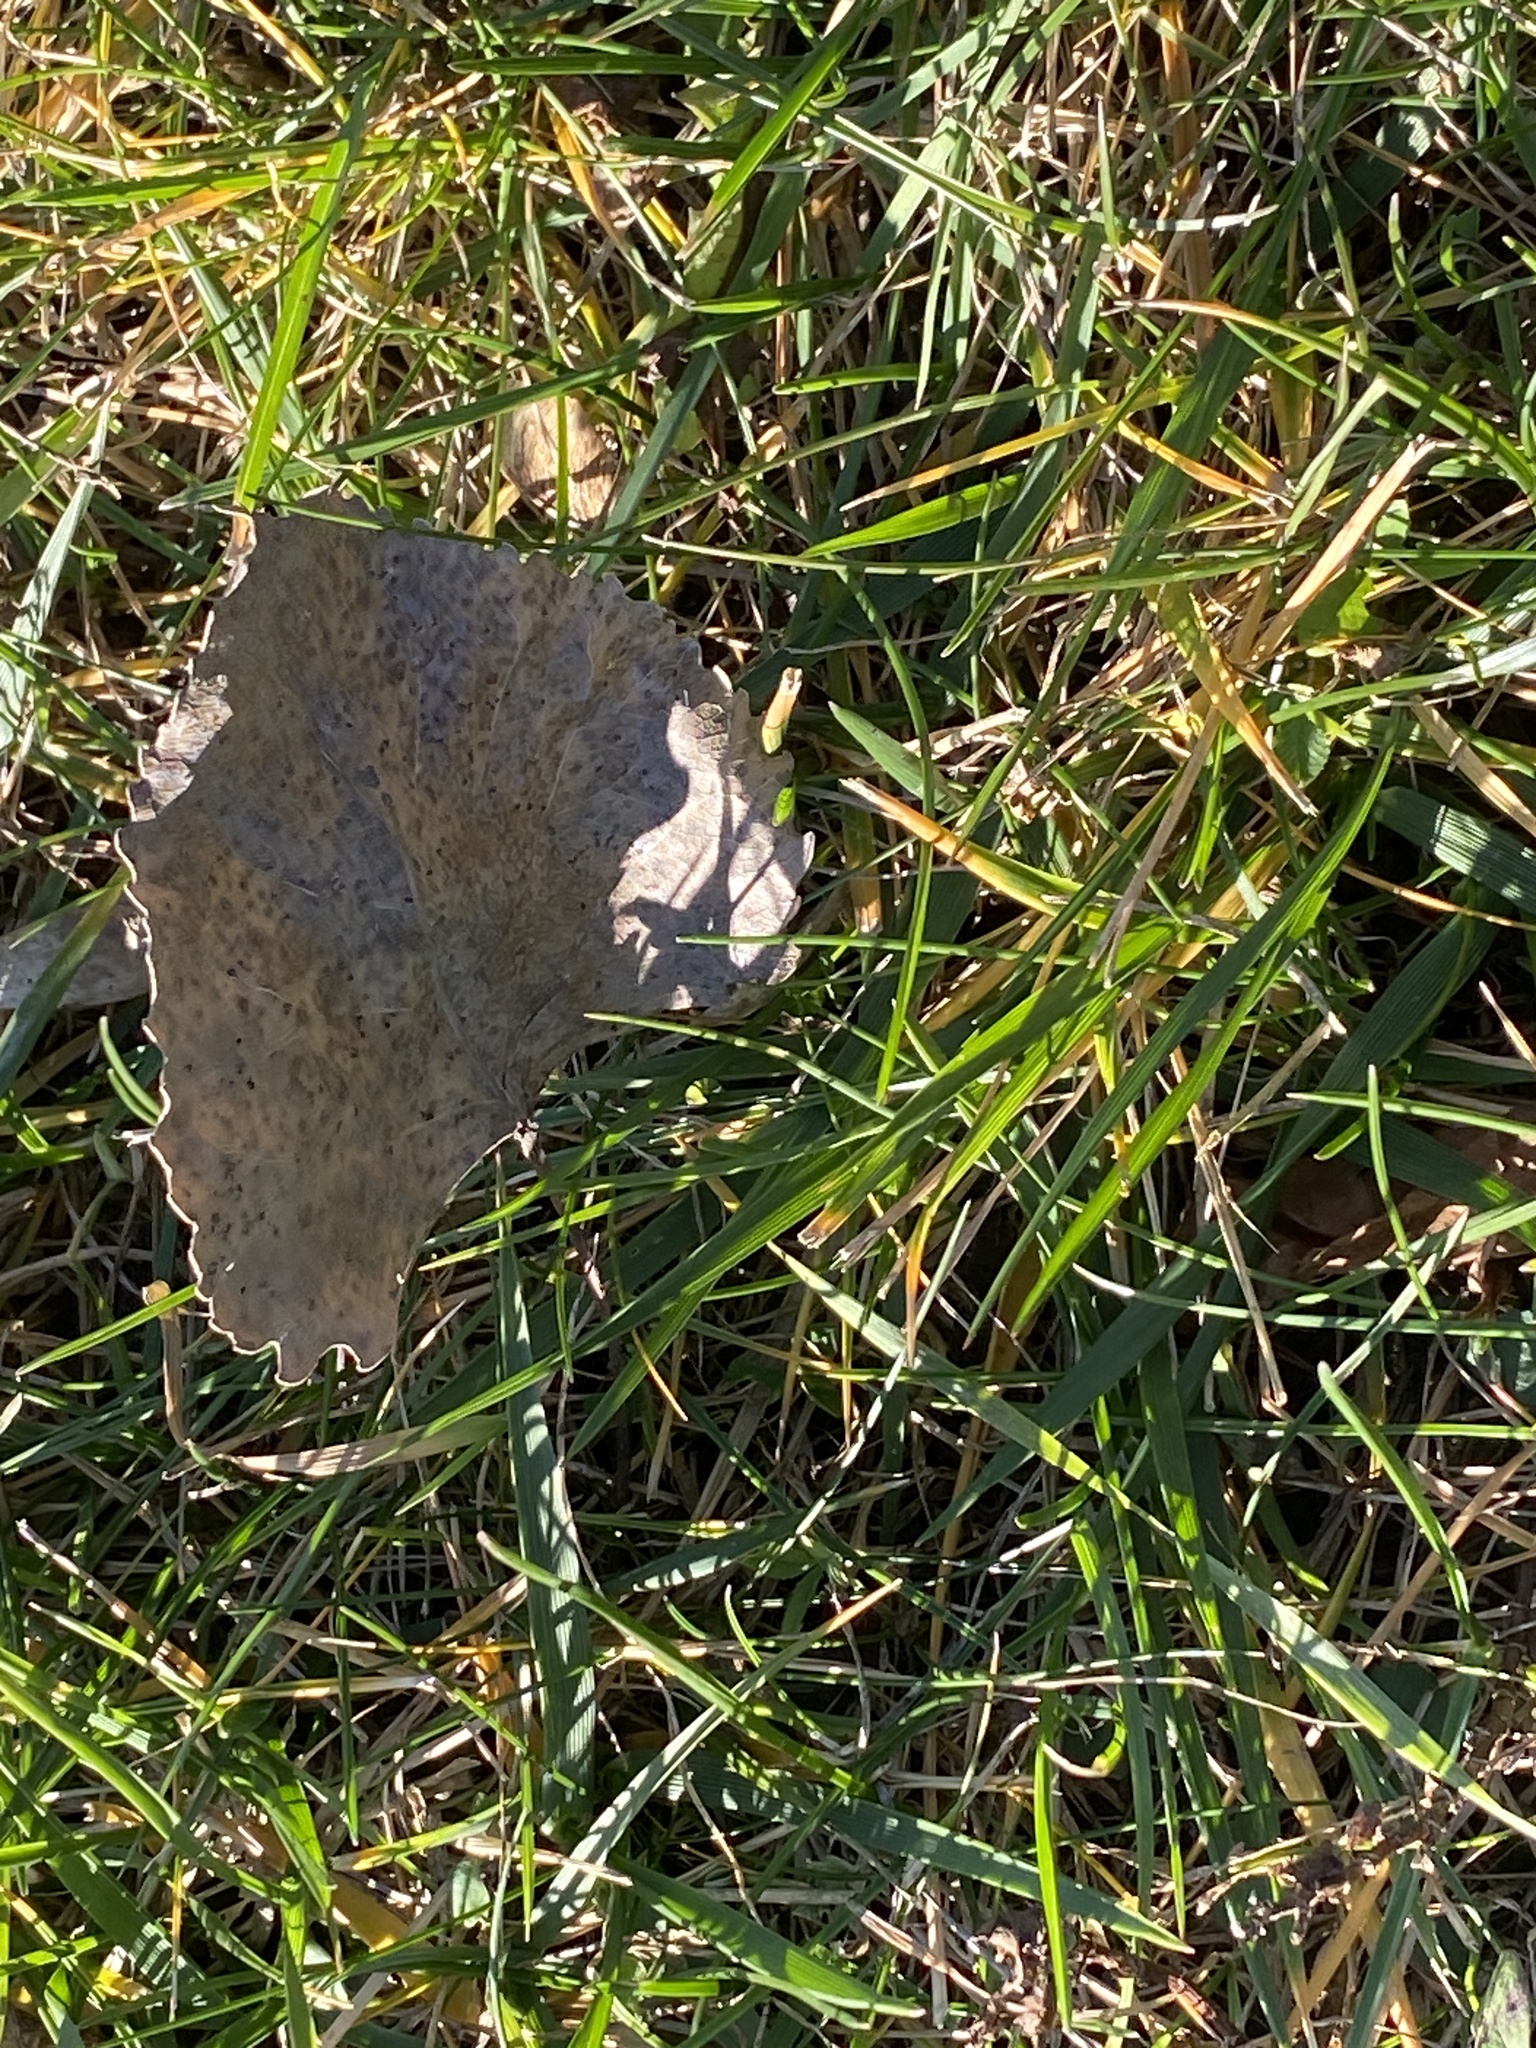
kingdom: Plantae
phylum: Tracheophyta
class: Magnoliopsida
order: Malpighiales
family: Salicaceae
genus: Populus
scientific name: Populus deltoides
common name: Eastern cottonwood
